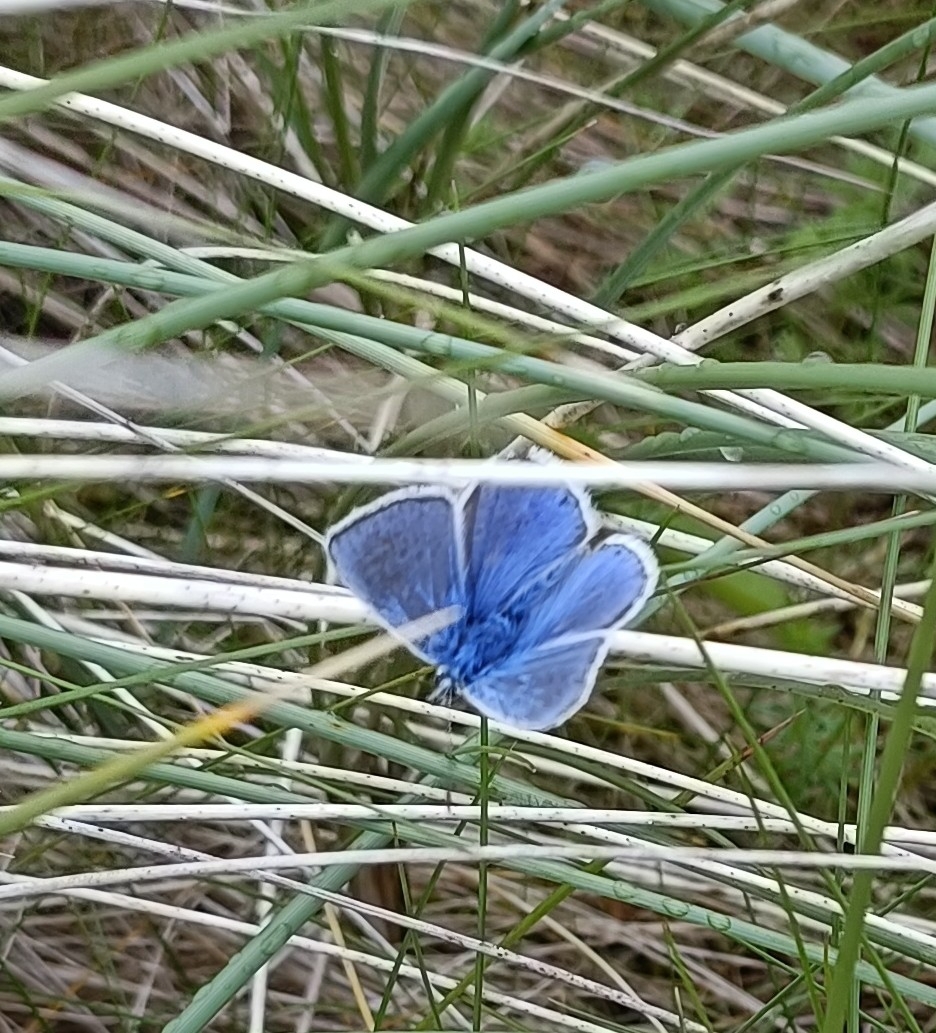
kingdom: Animalia
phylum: Arthropoda
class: Insecta
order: Lepidoptera
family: Lycaenidae
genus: Polyommatus
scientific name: Polyommatus icarus
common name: Common blue
